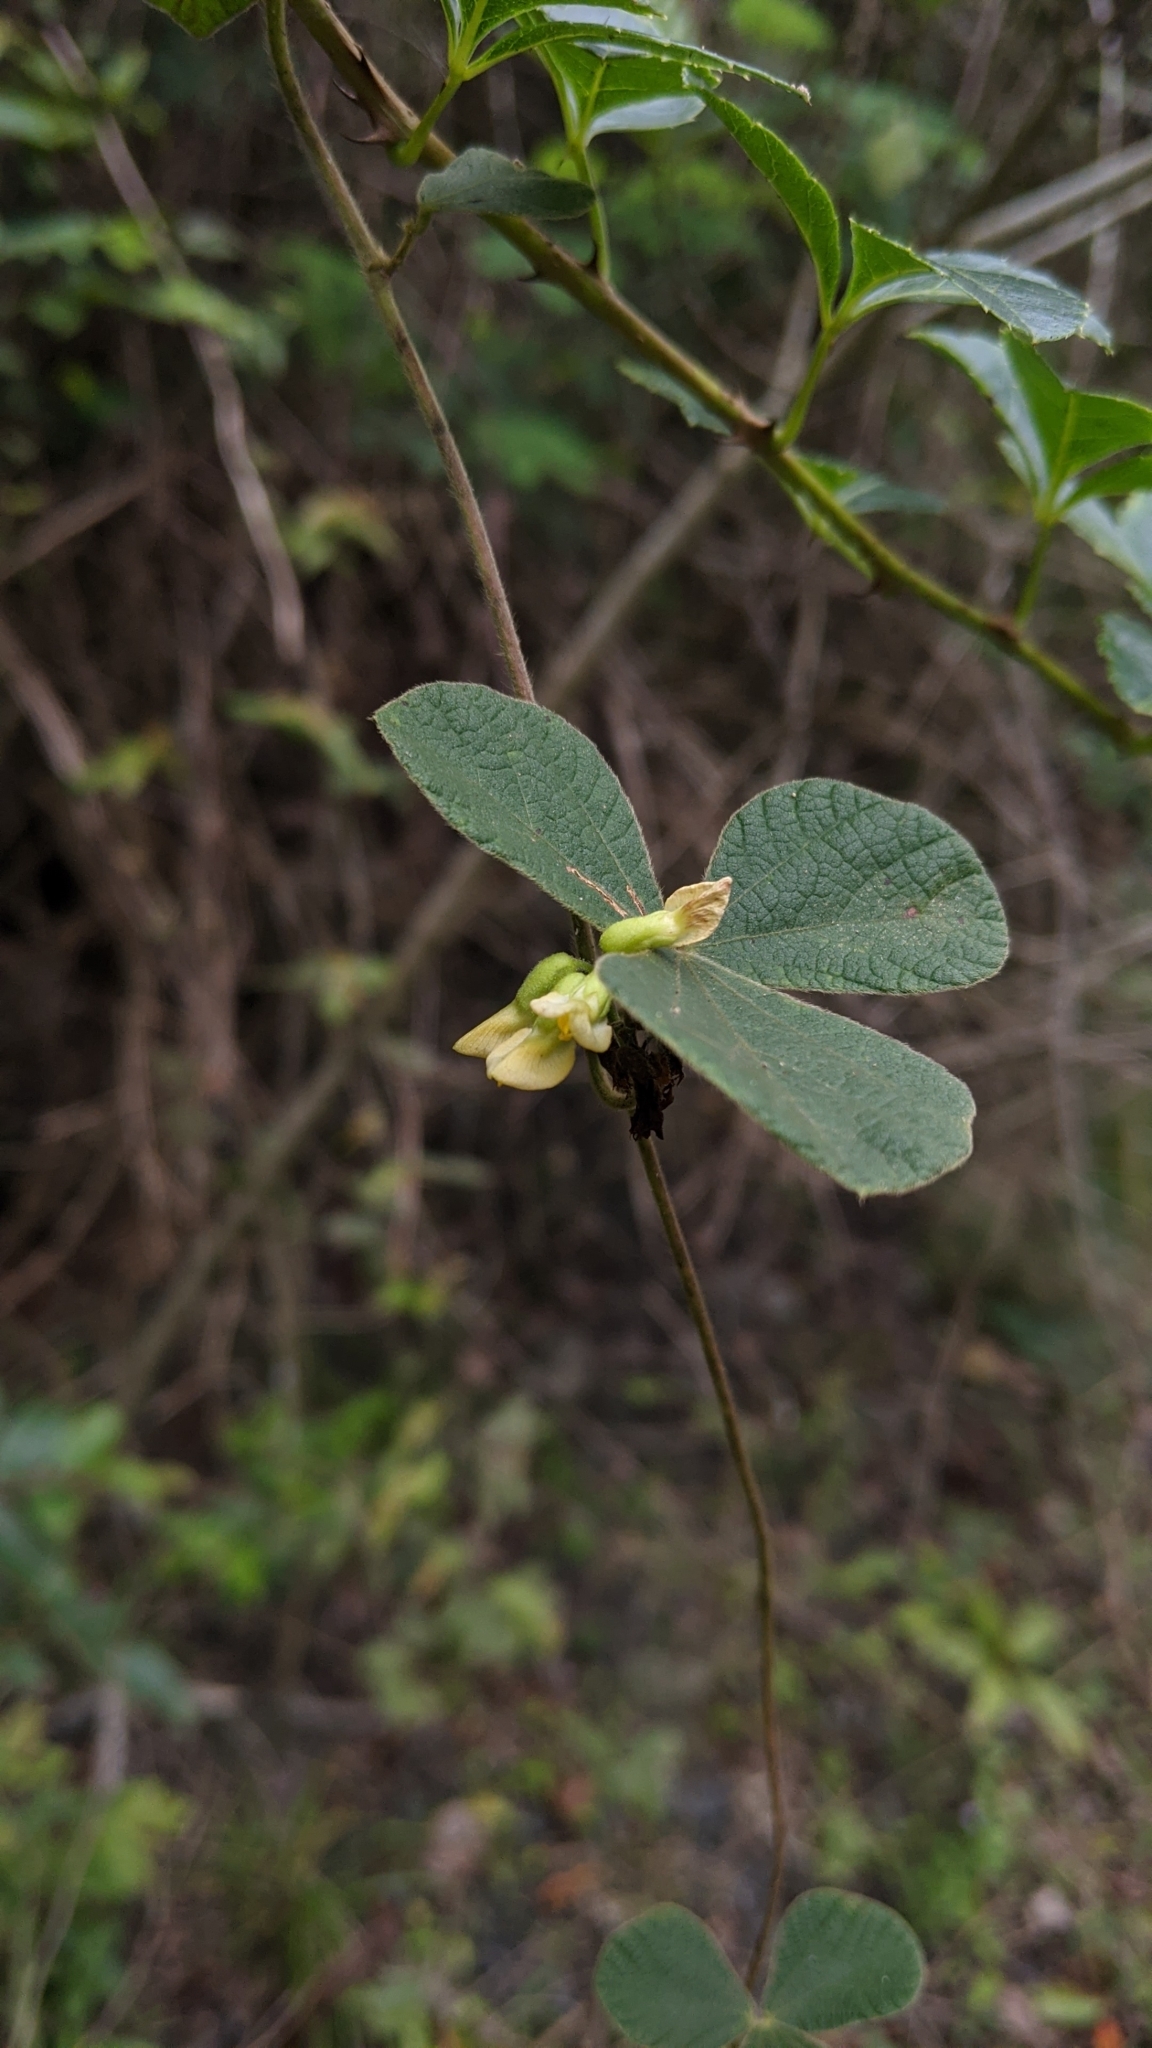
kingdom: Plantae
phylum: Tracheophyta
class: Magnoliopsida
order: Fabales
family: Fabaceae
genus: Rhynchosia
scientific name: Rhynchosia volubilis
